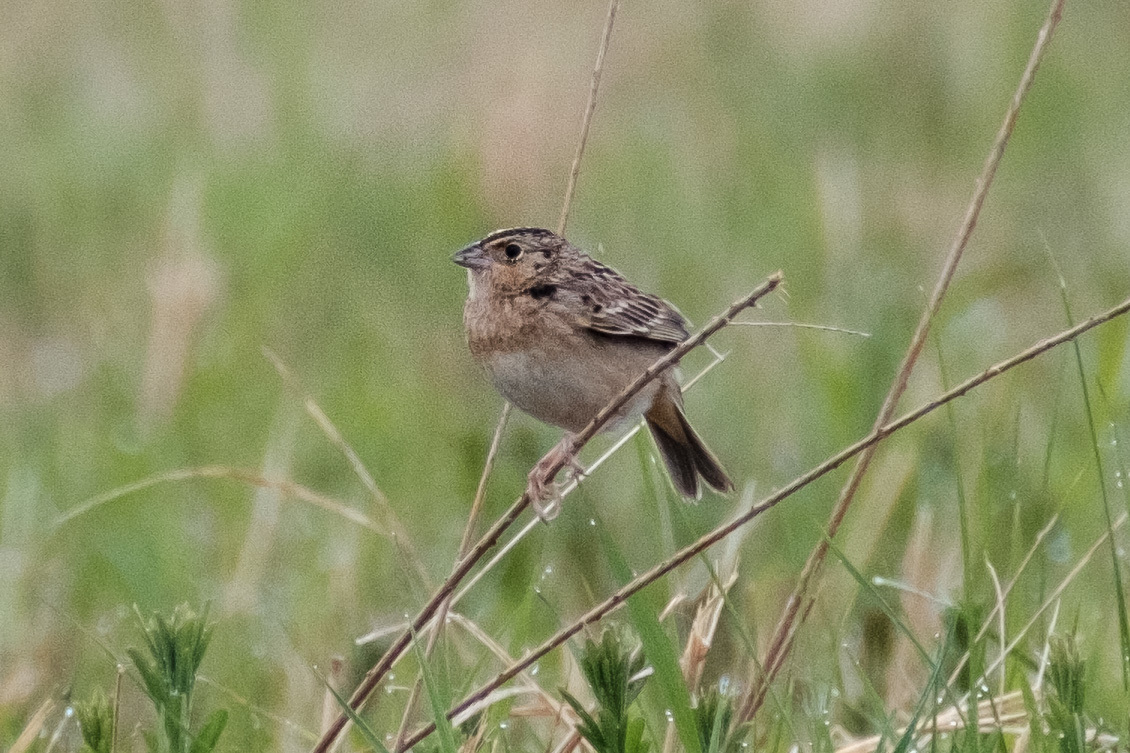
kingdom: Animalia
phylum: Chordata
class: Aves
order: Passeriformes
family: Passerellidae
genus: Ammodramus
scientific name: Ammodramus savannarum
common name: Grasshopper sparrow
